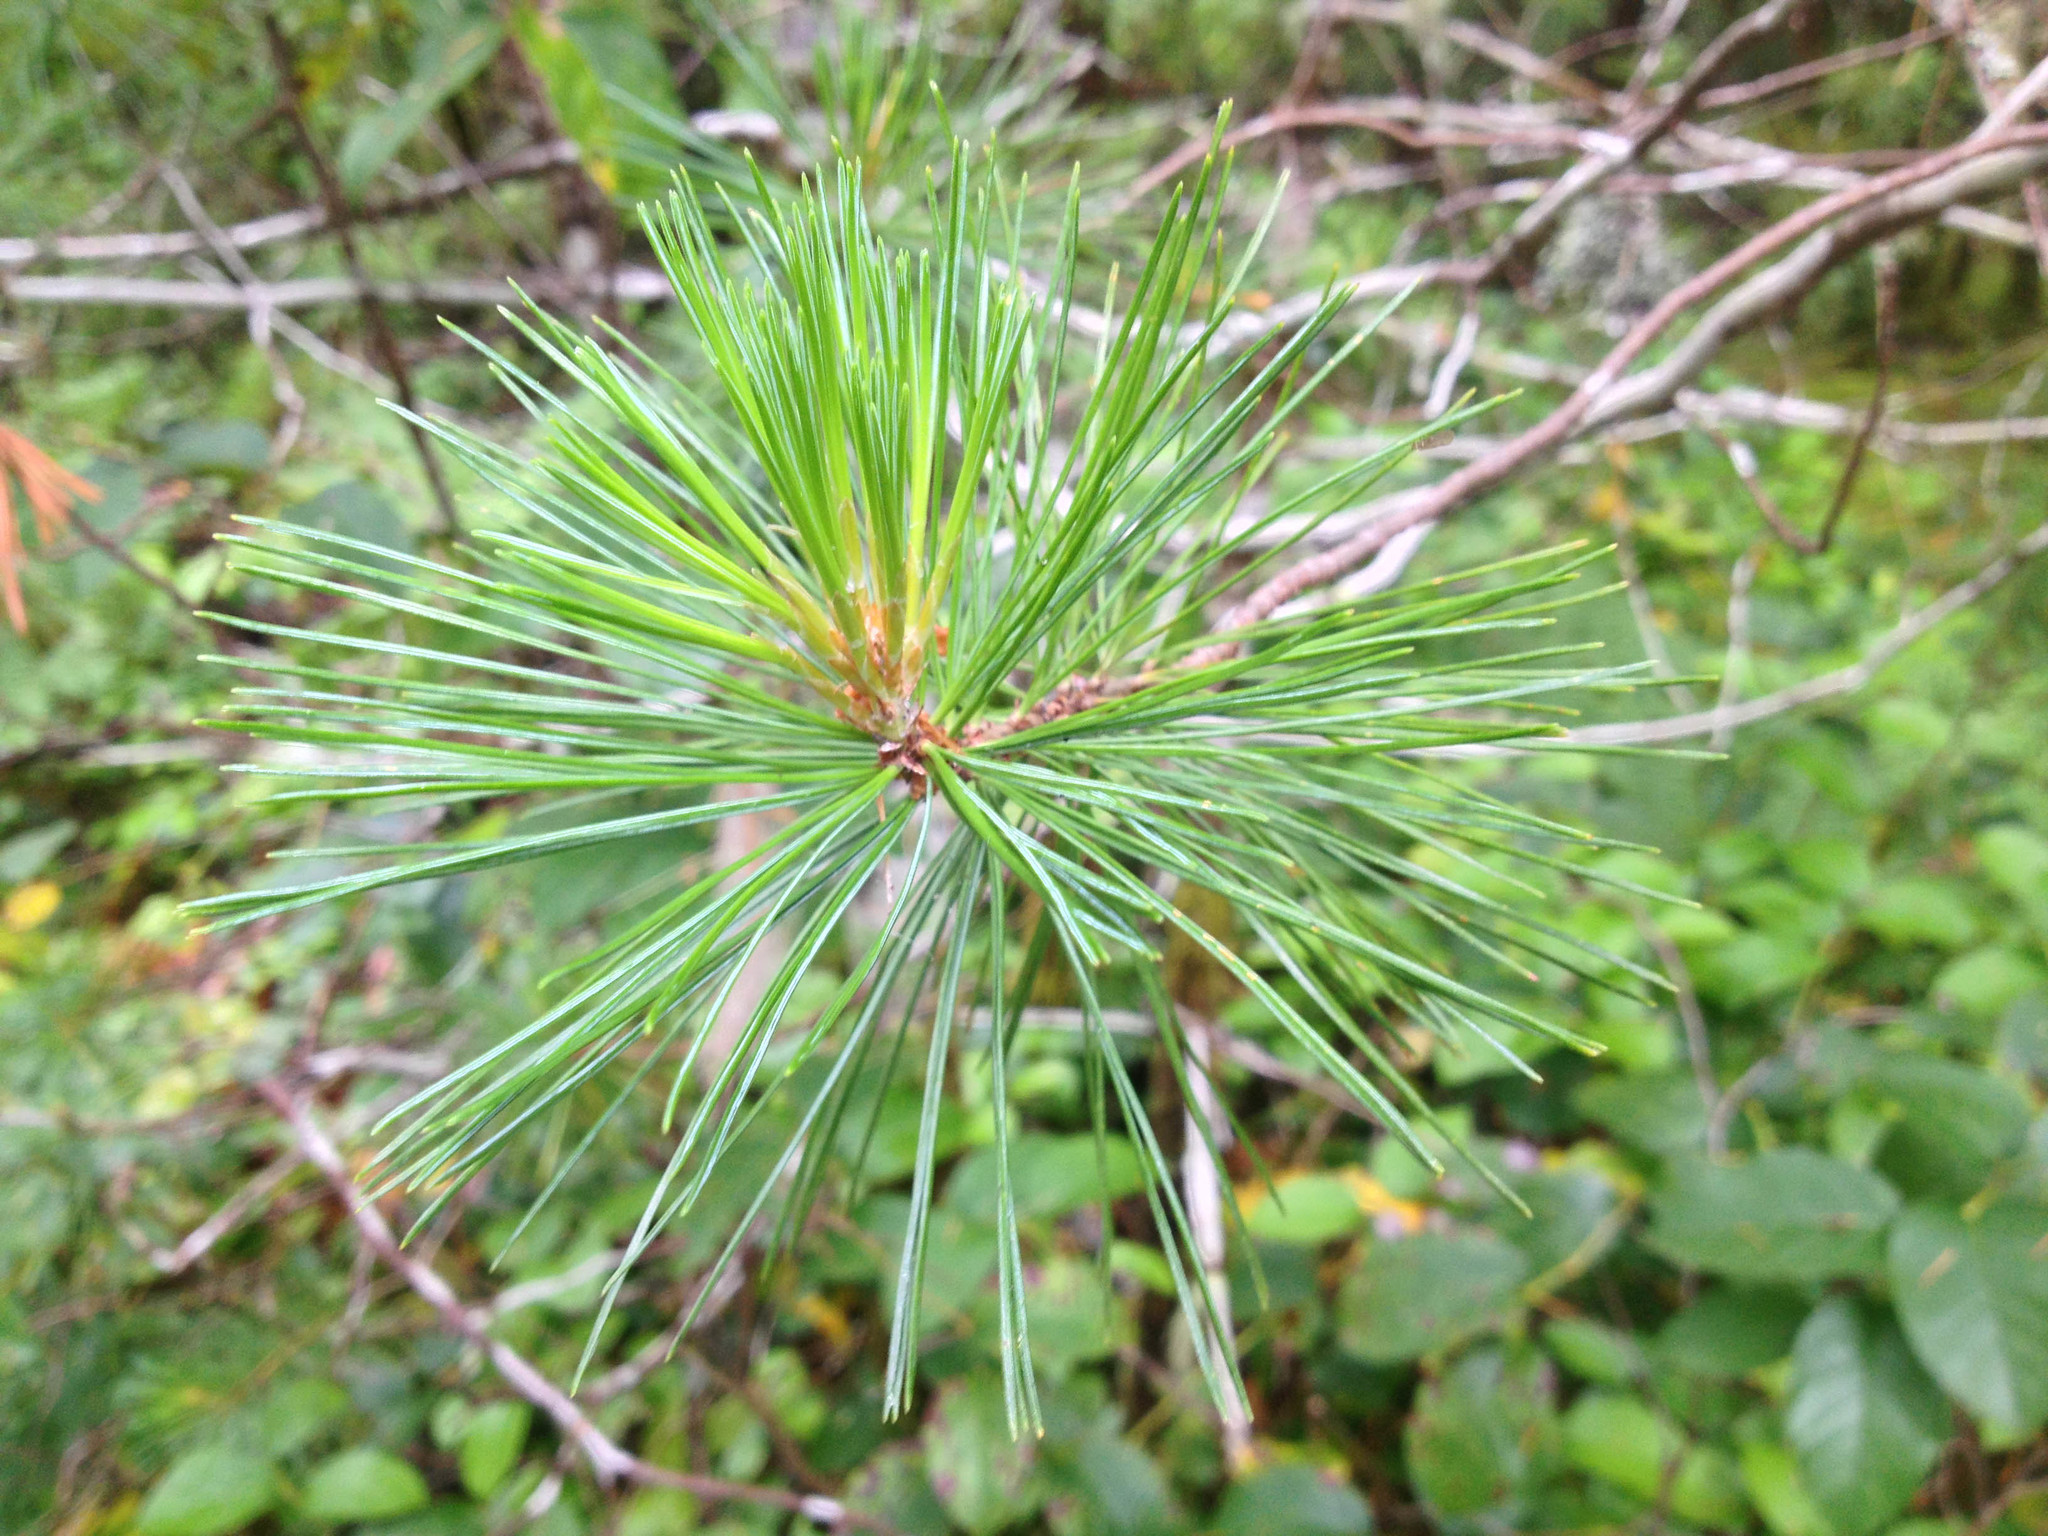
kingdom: Plantae
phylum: Tracheophyta
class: Pinopsida
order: Pinales
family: Pinaceae
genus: Pinus
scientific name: Pinus monticola
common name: Western white pine
